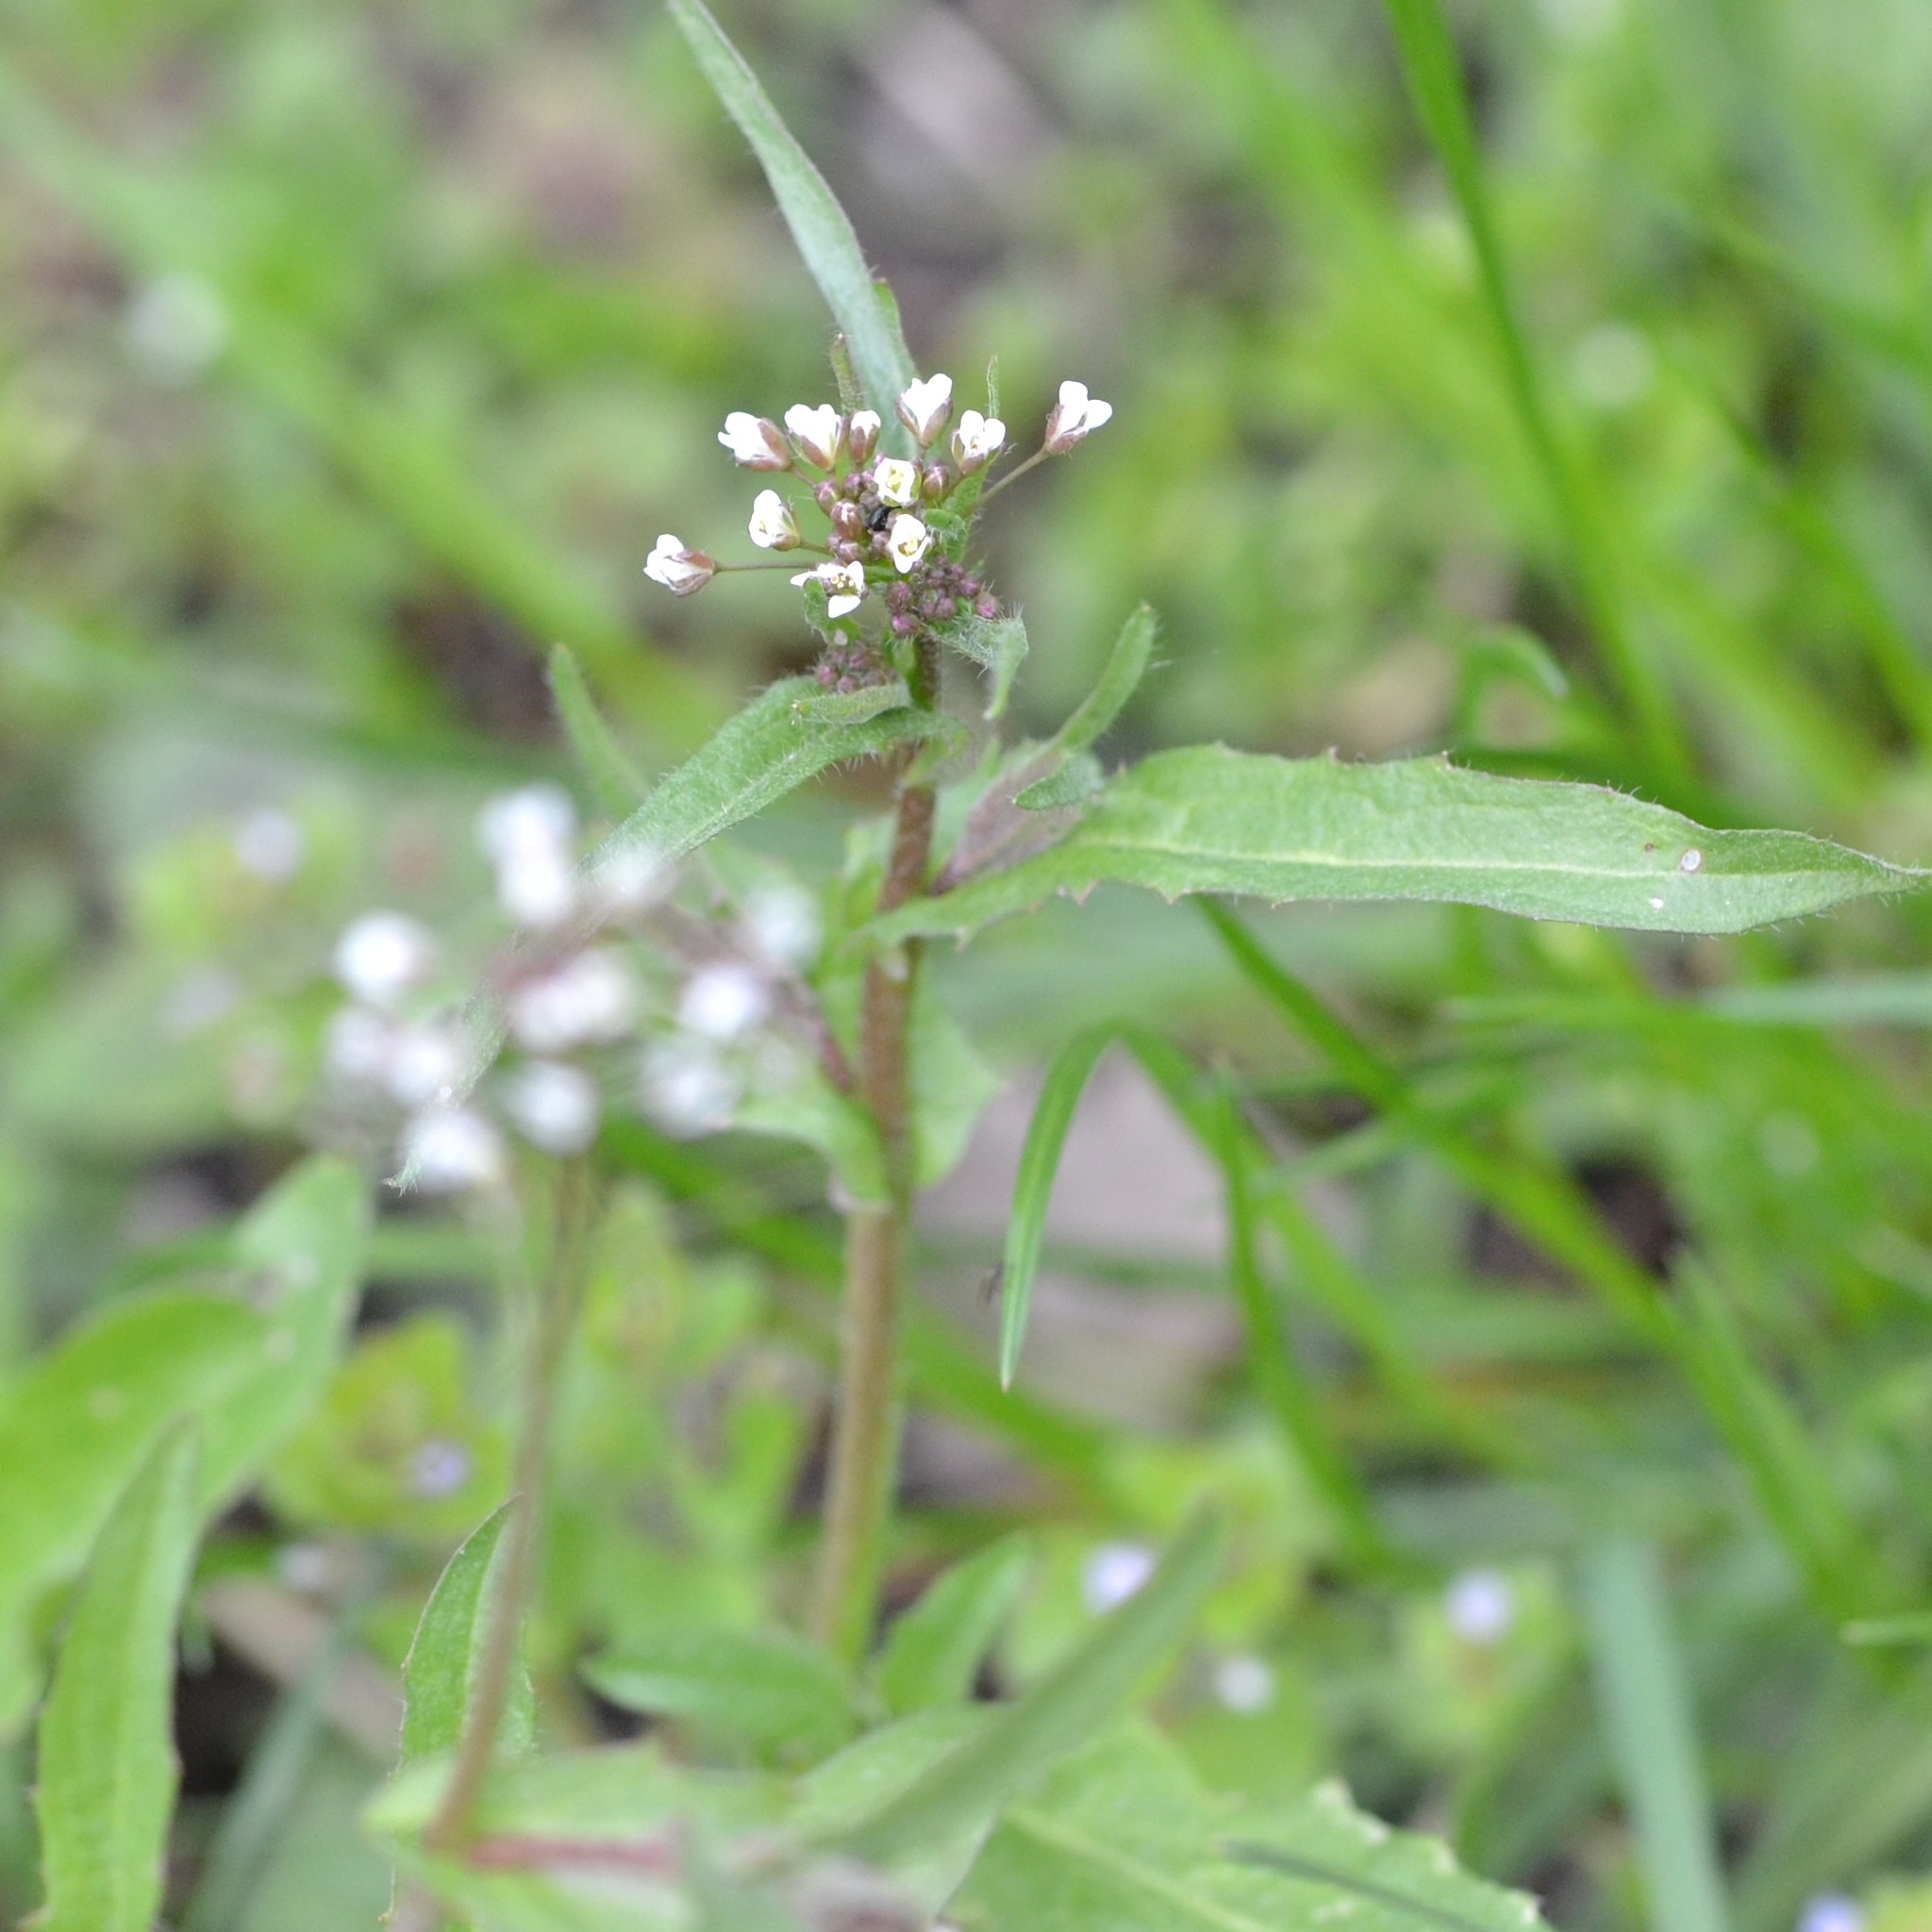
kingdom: Plantae
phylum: Tracheophyta
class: Magnoliopsida
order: Brassicales
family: Brassicaceae
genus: Capsella
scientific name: Capsella bursa-pastoris
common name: Shepherd's purse
